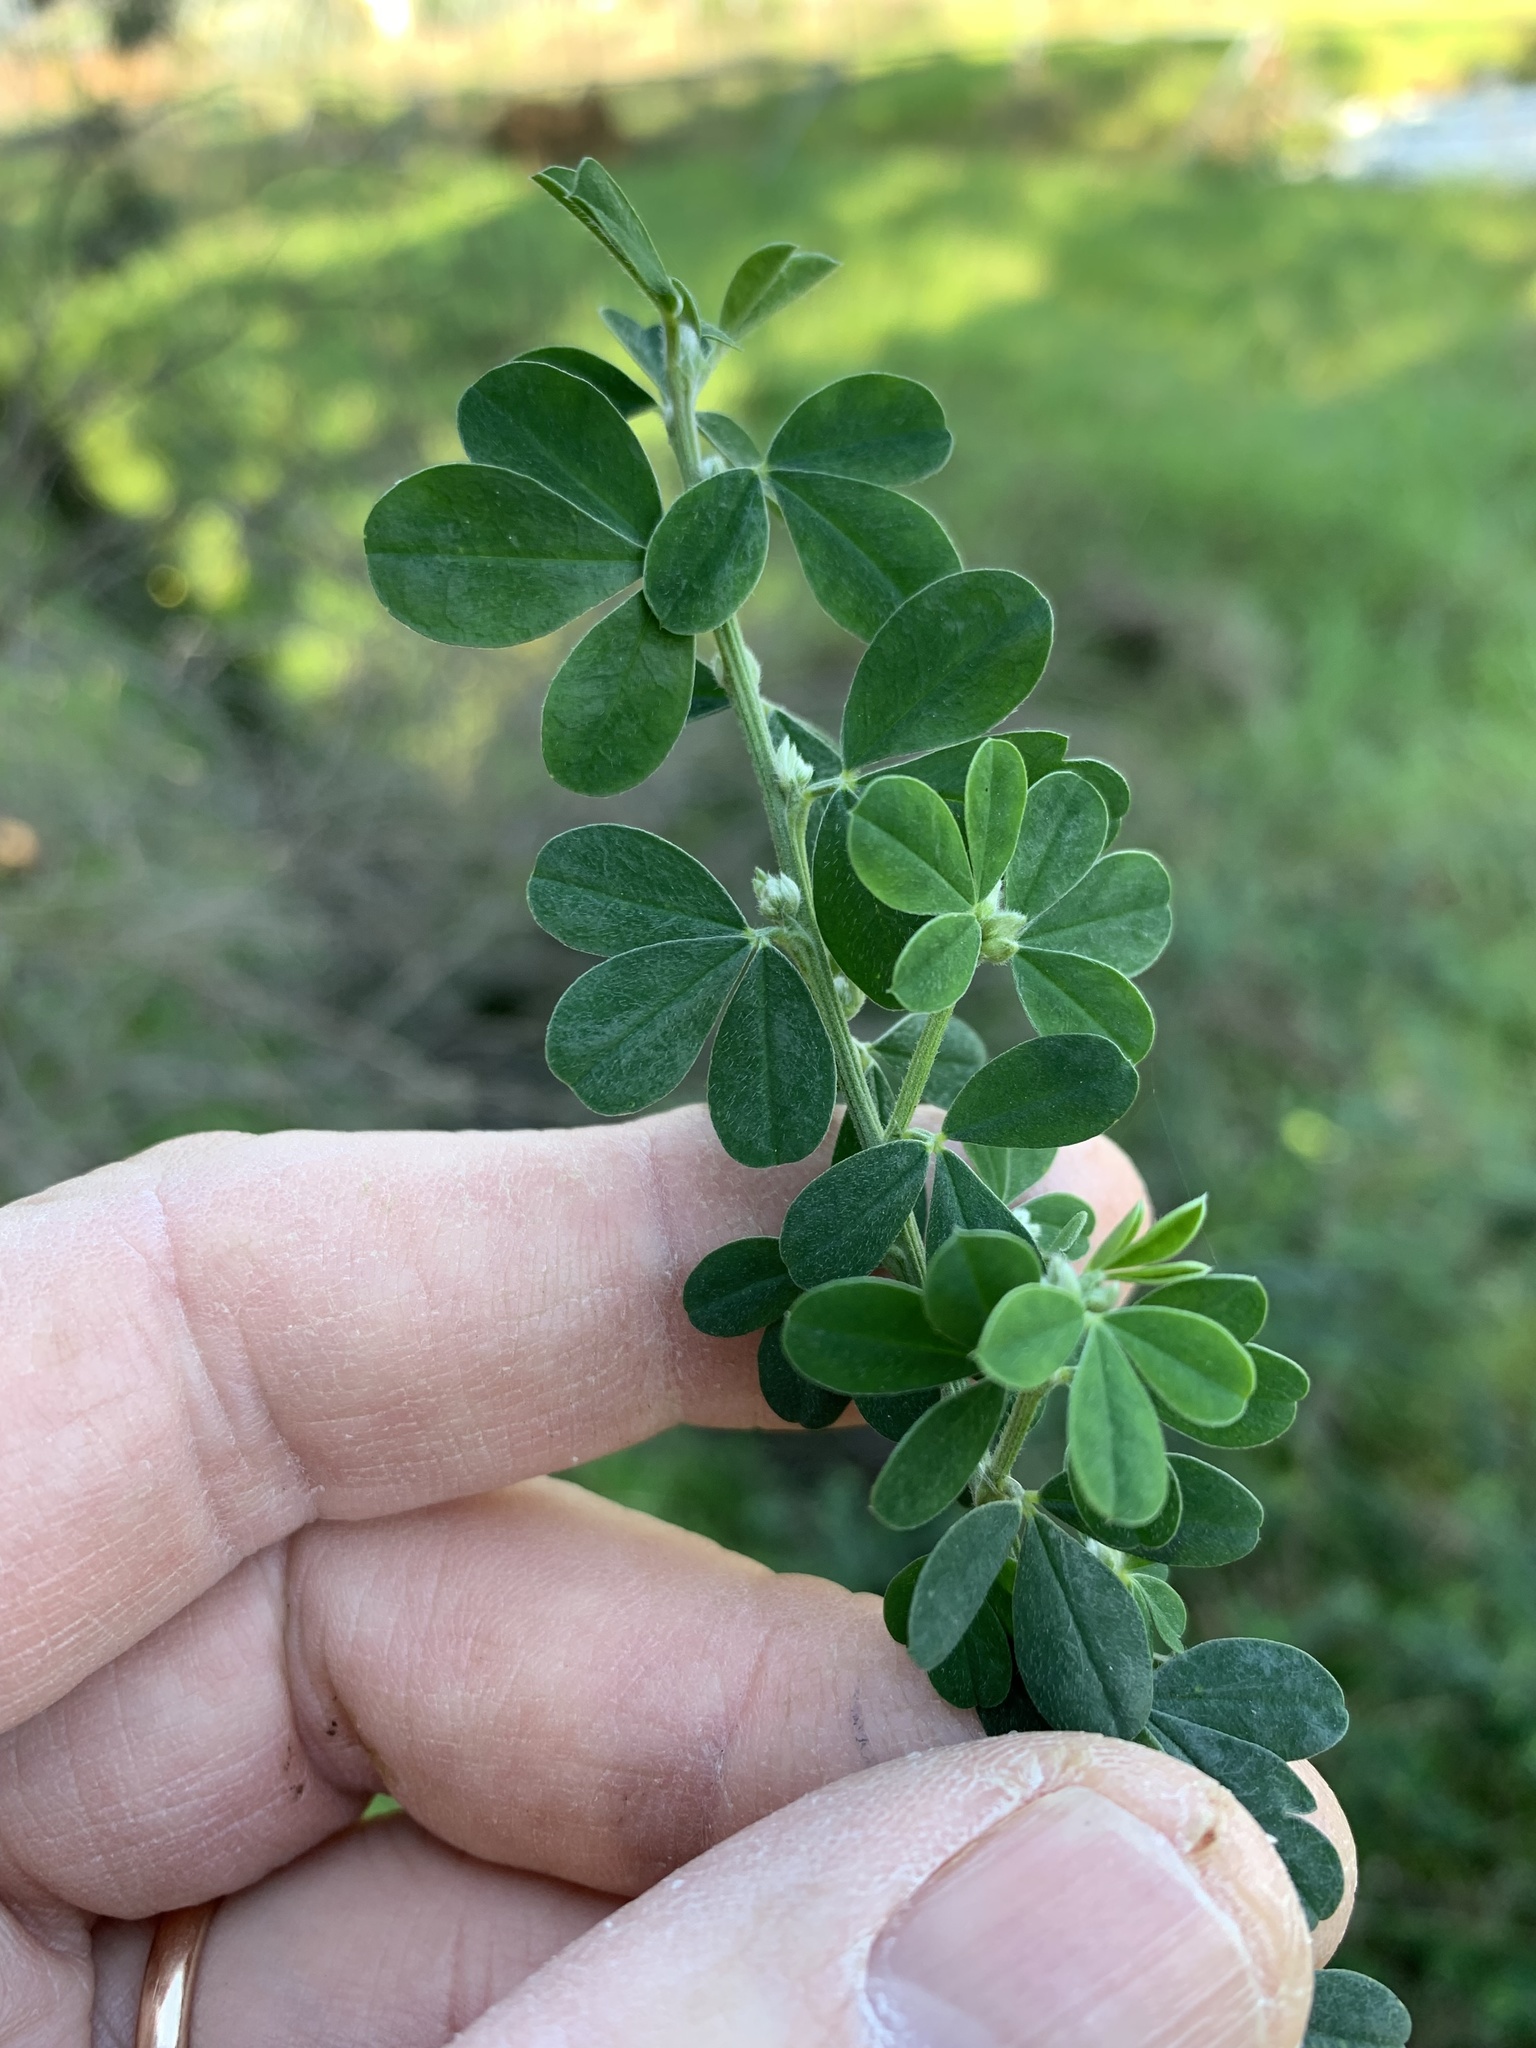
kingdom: Plantae
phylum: Tracheophyta
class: Magnoliopsida
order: Fabales
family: Fabaceae
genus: Genista
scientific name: Genista monspessulana
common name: Montpellier broom
